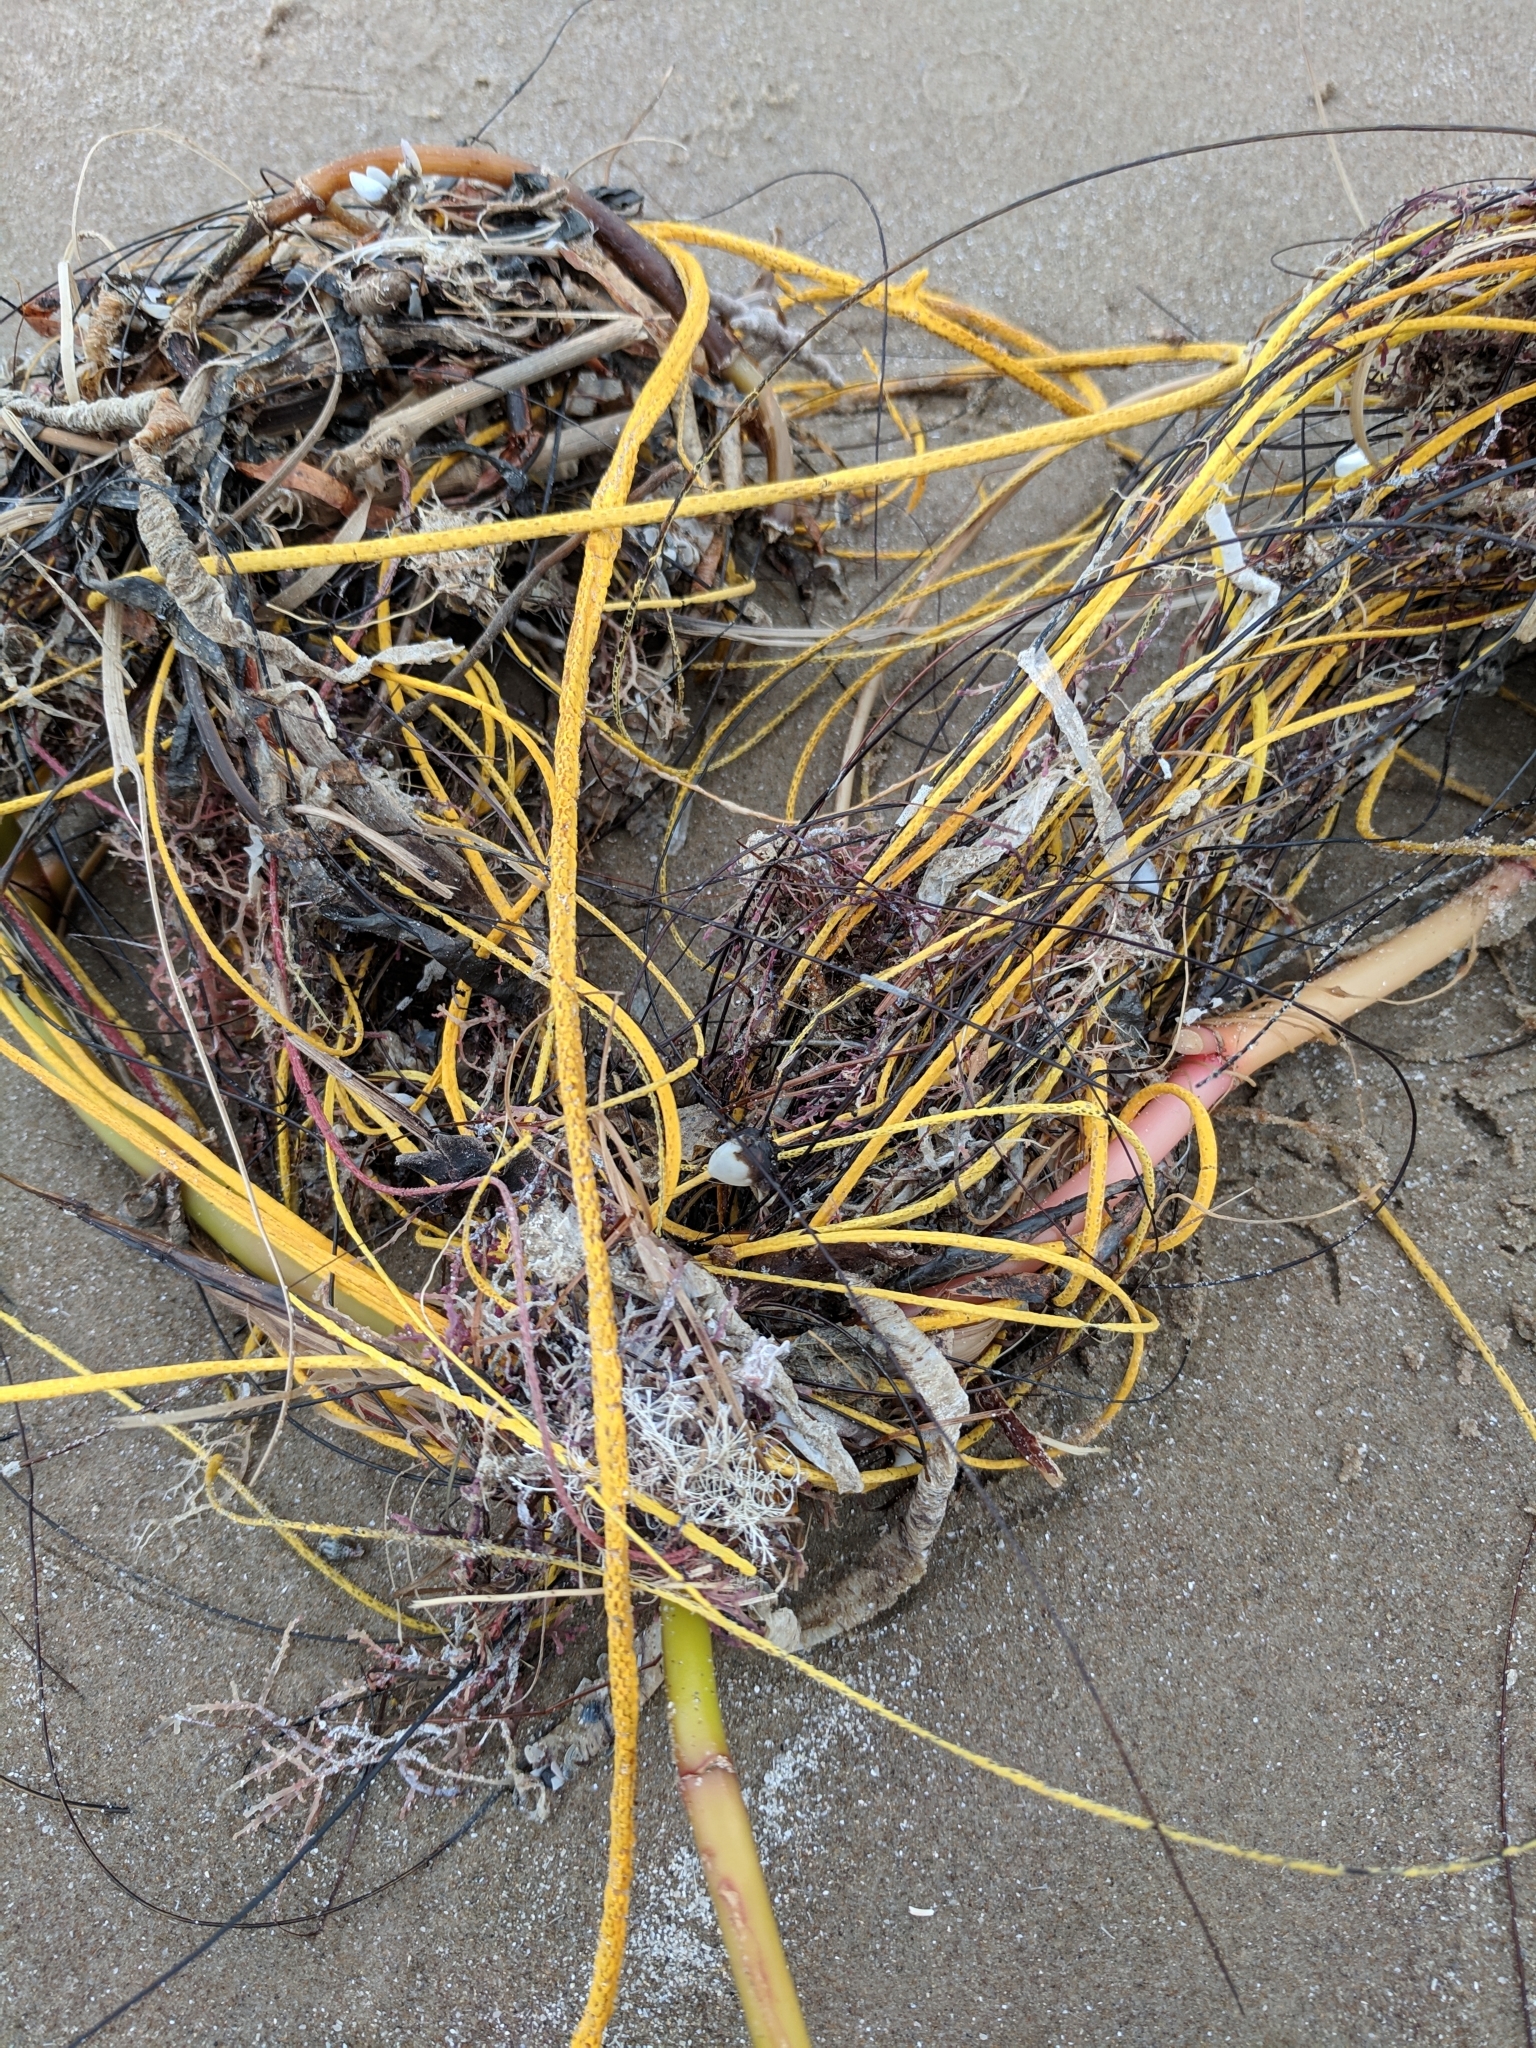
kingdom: Animalia
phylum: Cnidaria
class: Anthozoa
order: Malacalcyonacea
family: Gorgoniidae
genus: Leptogorgia
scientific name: Leptogorgia setacea
